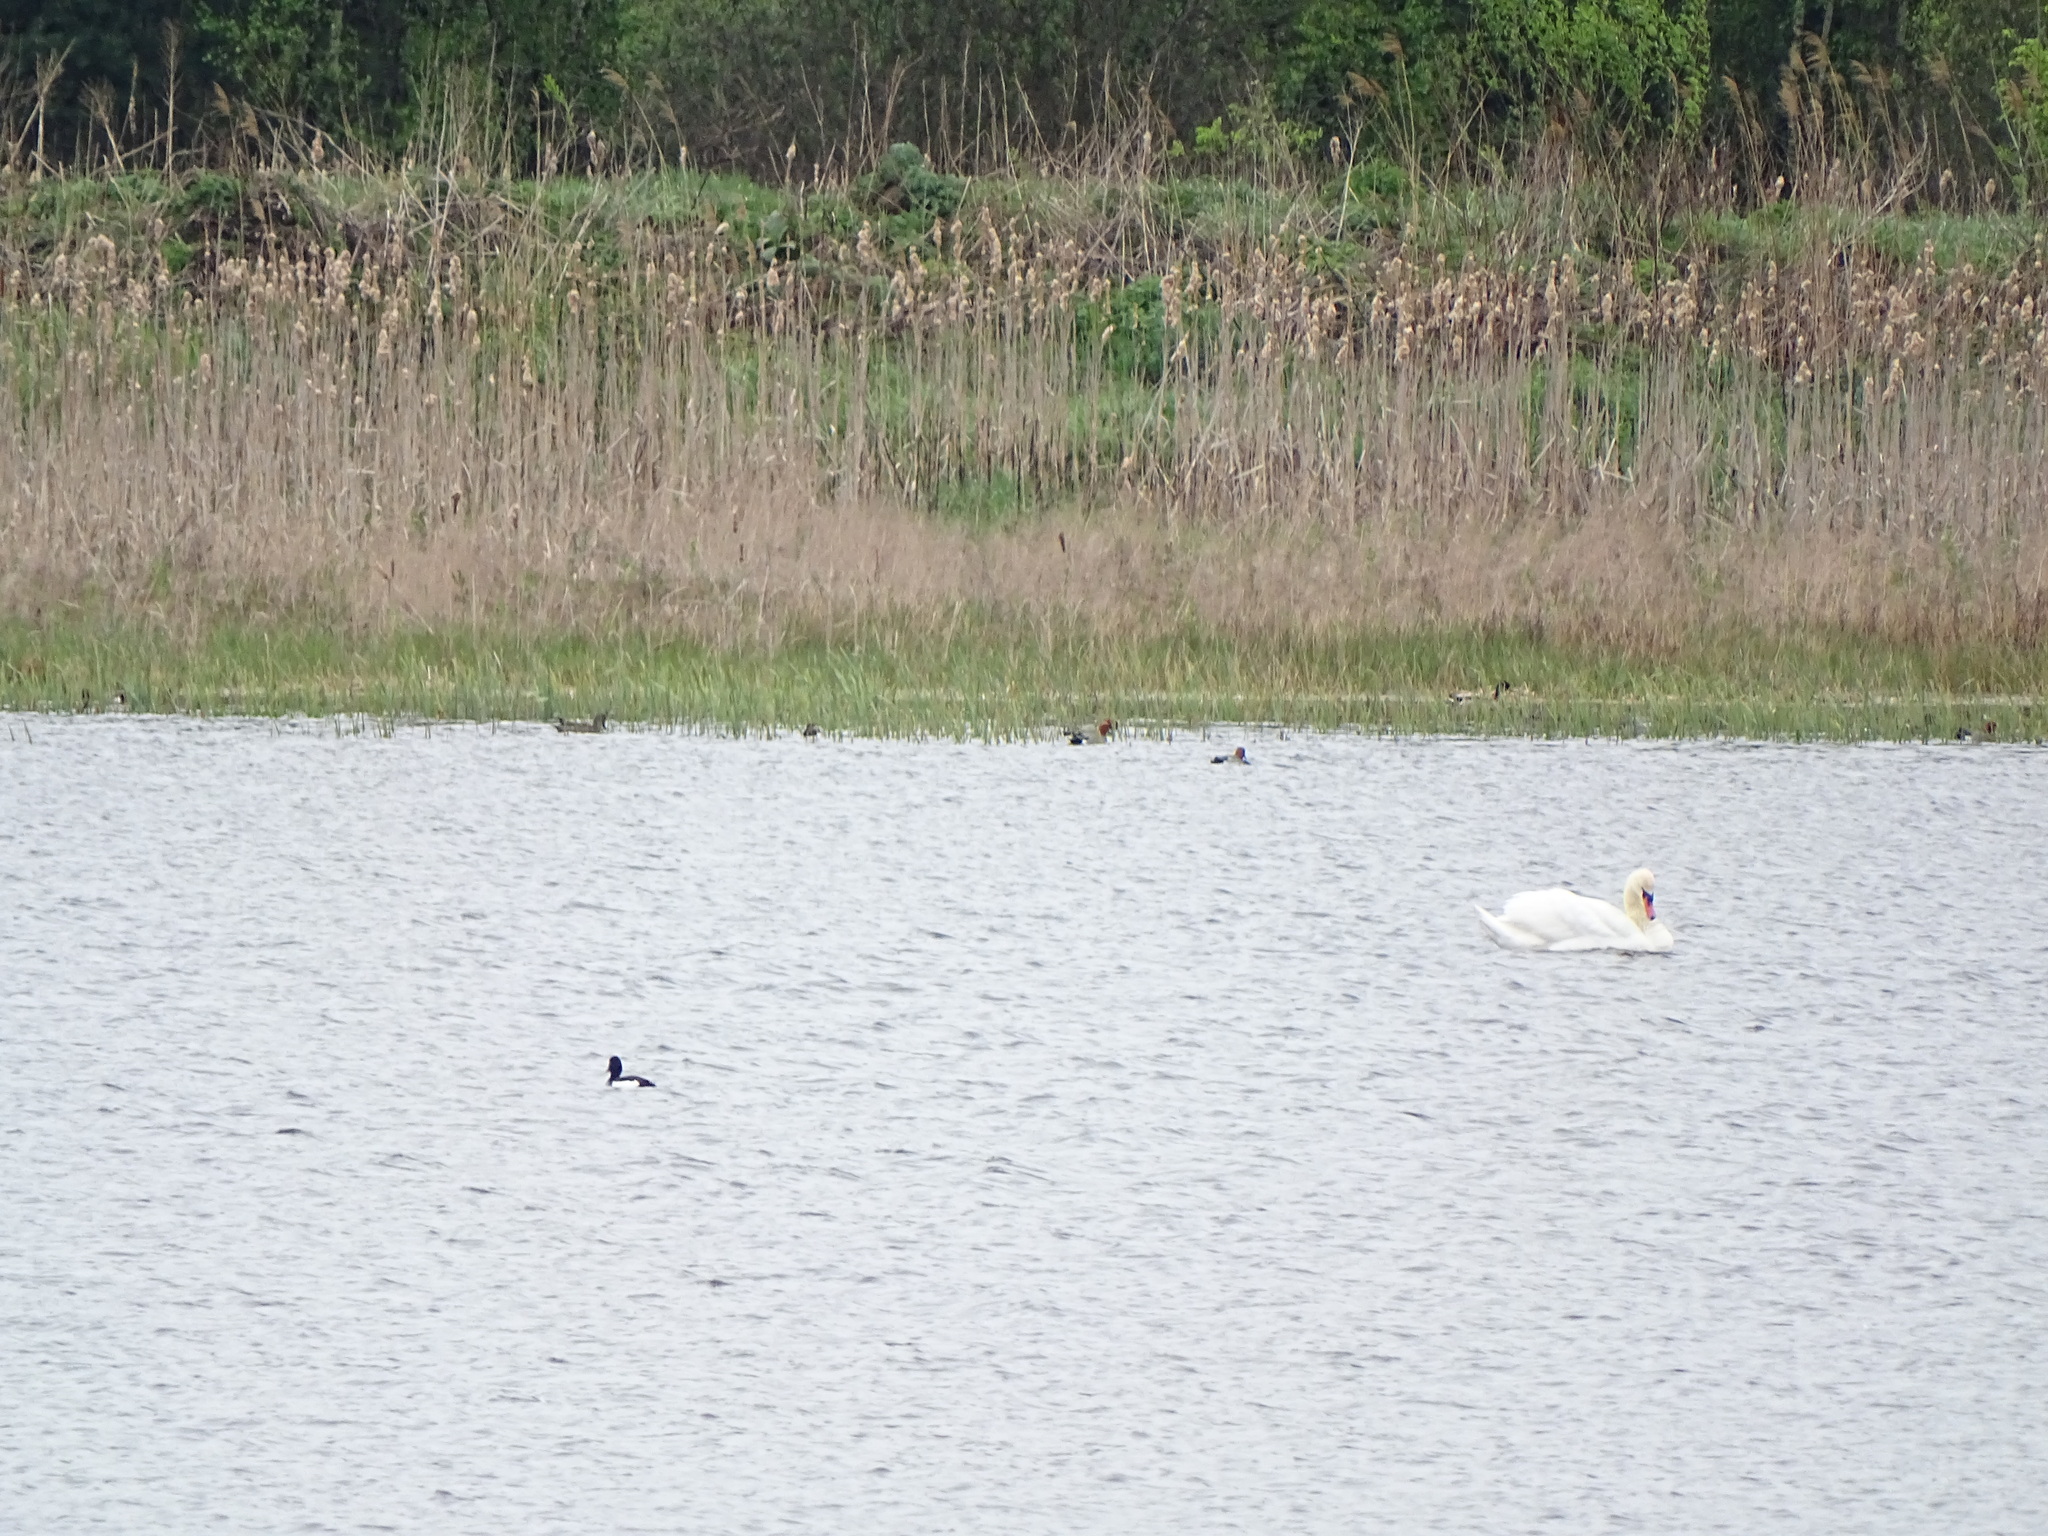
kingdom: Animalia
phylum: Chordata
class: Aves
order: Anseriformes
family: Anatidae
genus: Aythya
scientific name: Aythya fuligula
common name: Tufted duck
